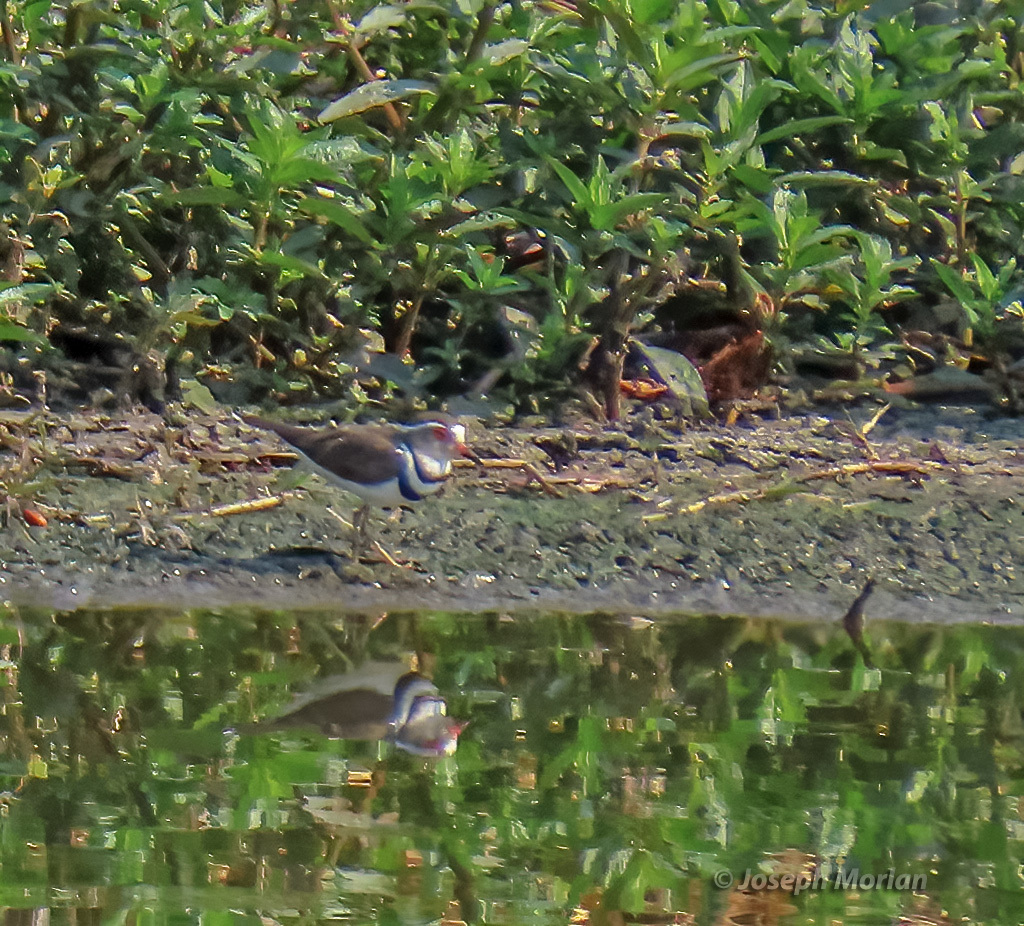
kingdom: Animalia
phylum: Chordata
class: Aves
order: Charadriiformes
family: Charadriidae
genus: Charadrius
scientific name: Charadrius tricollaris
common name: Three-banded plover
